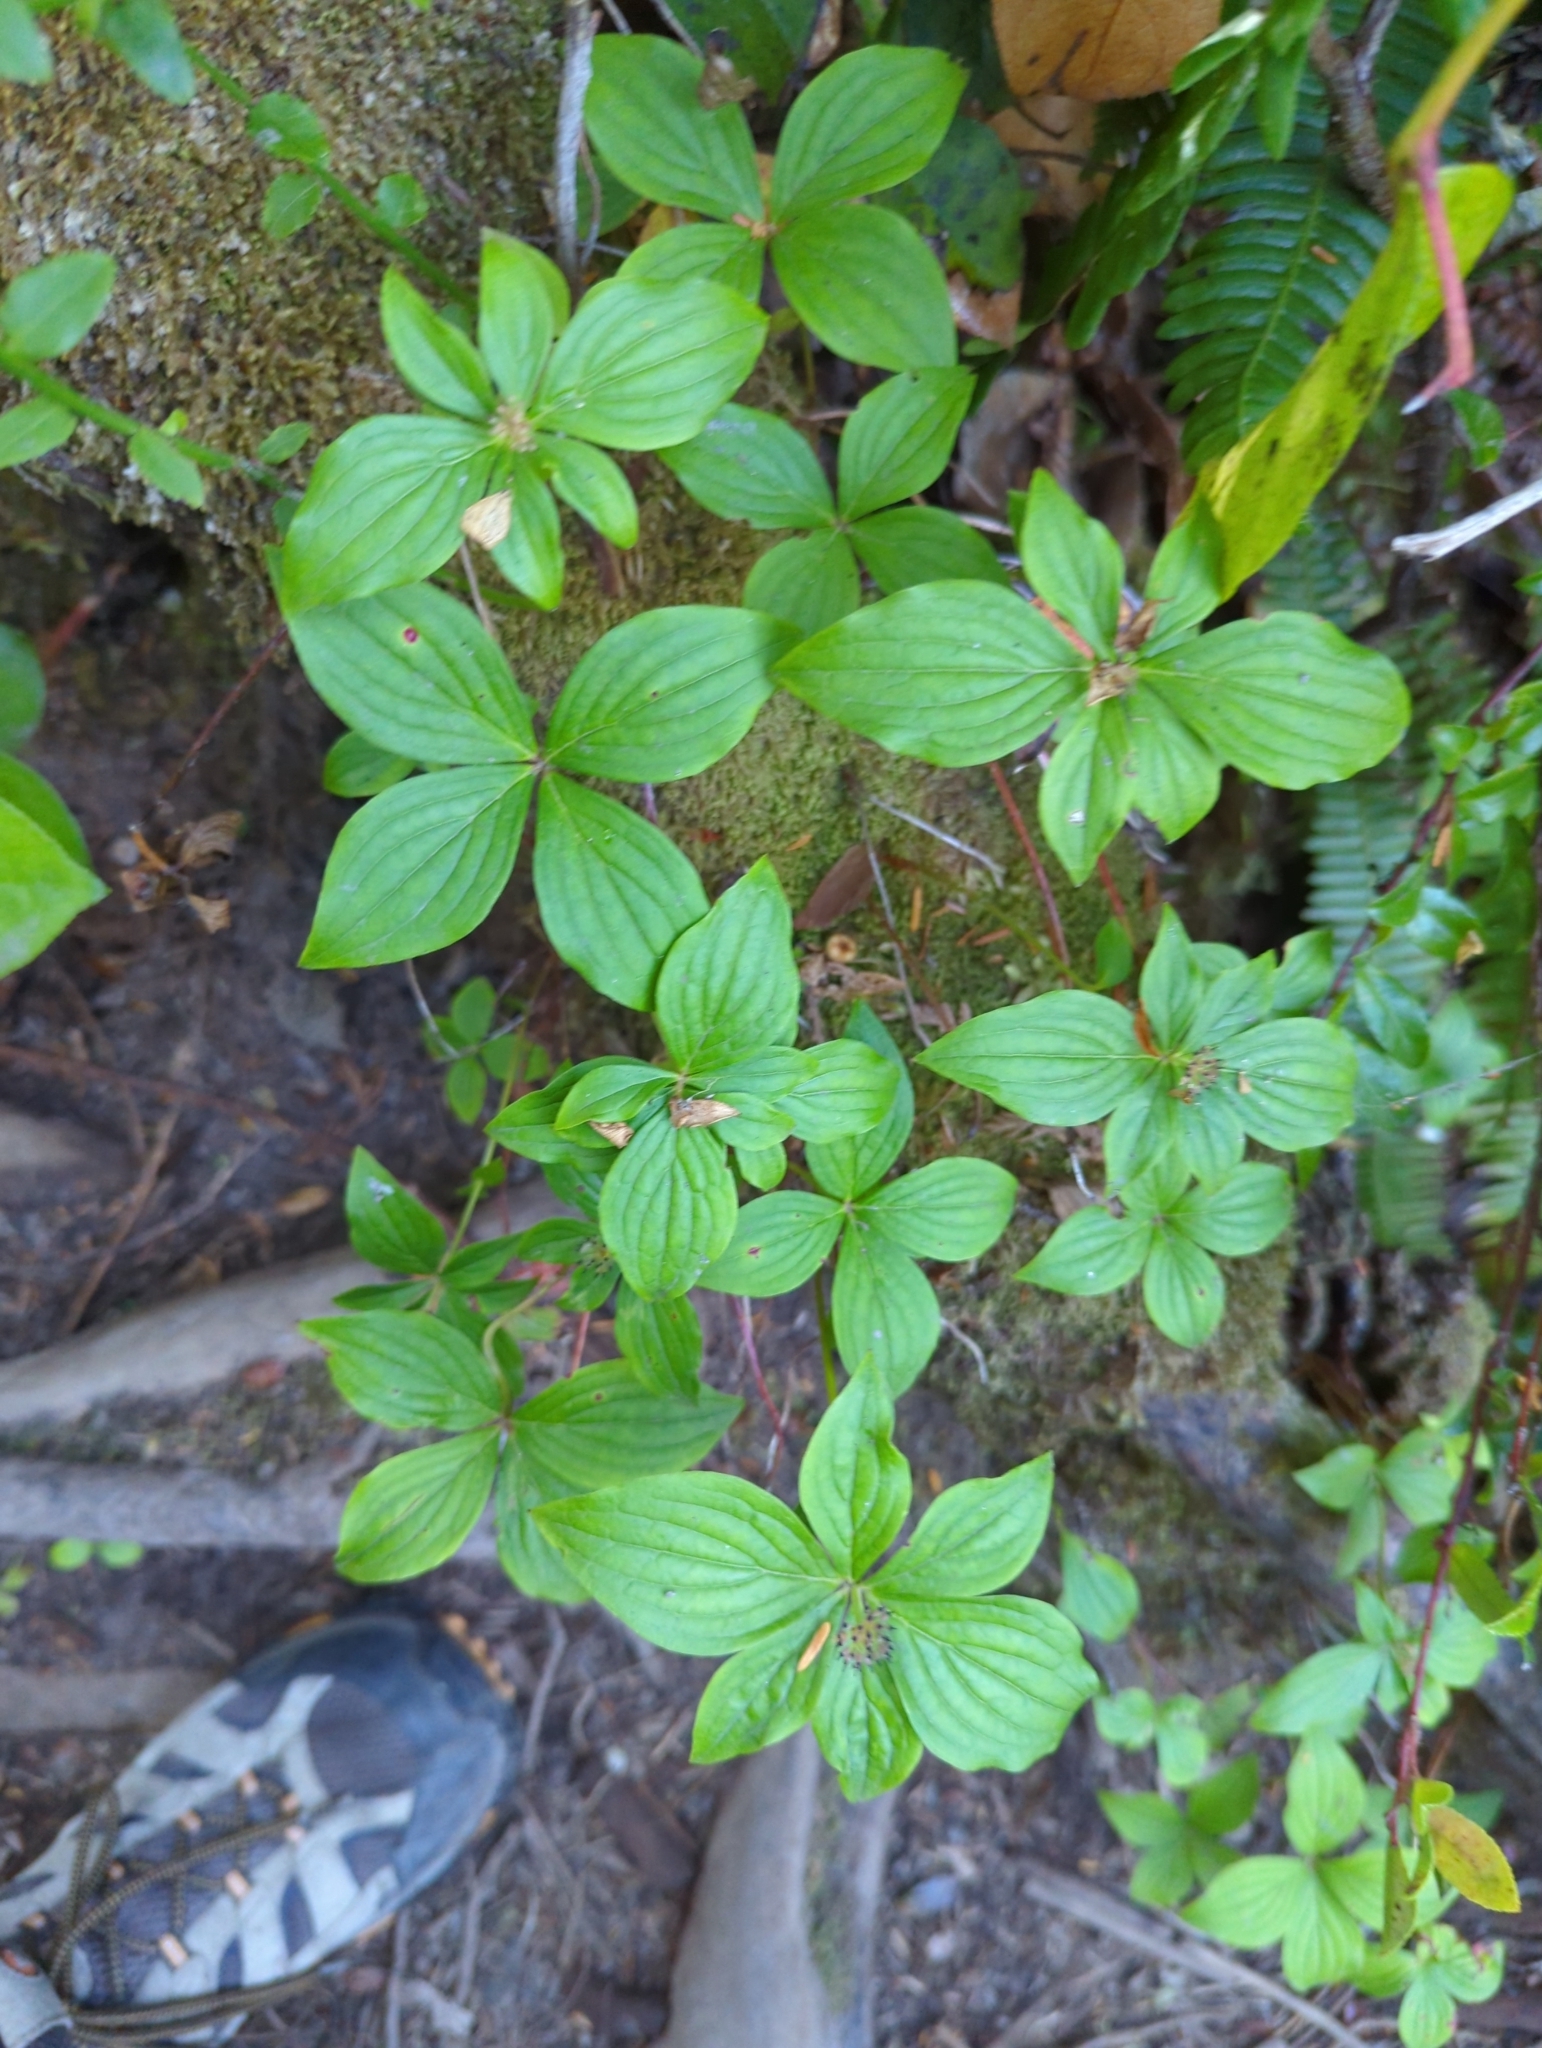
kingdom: Plantae
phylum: Tracheophyta
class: Magnoliopsida
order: Cornales
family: Cornaceae
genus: Cornus
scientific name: Cornus unalaschkensis
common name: Alaska bunchberry
